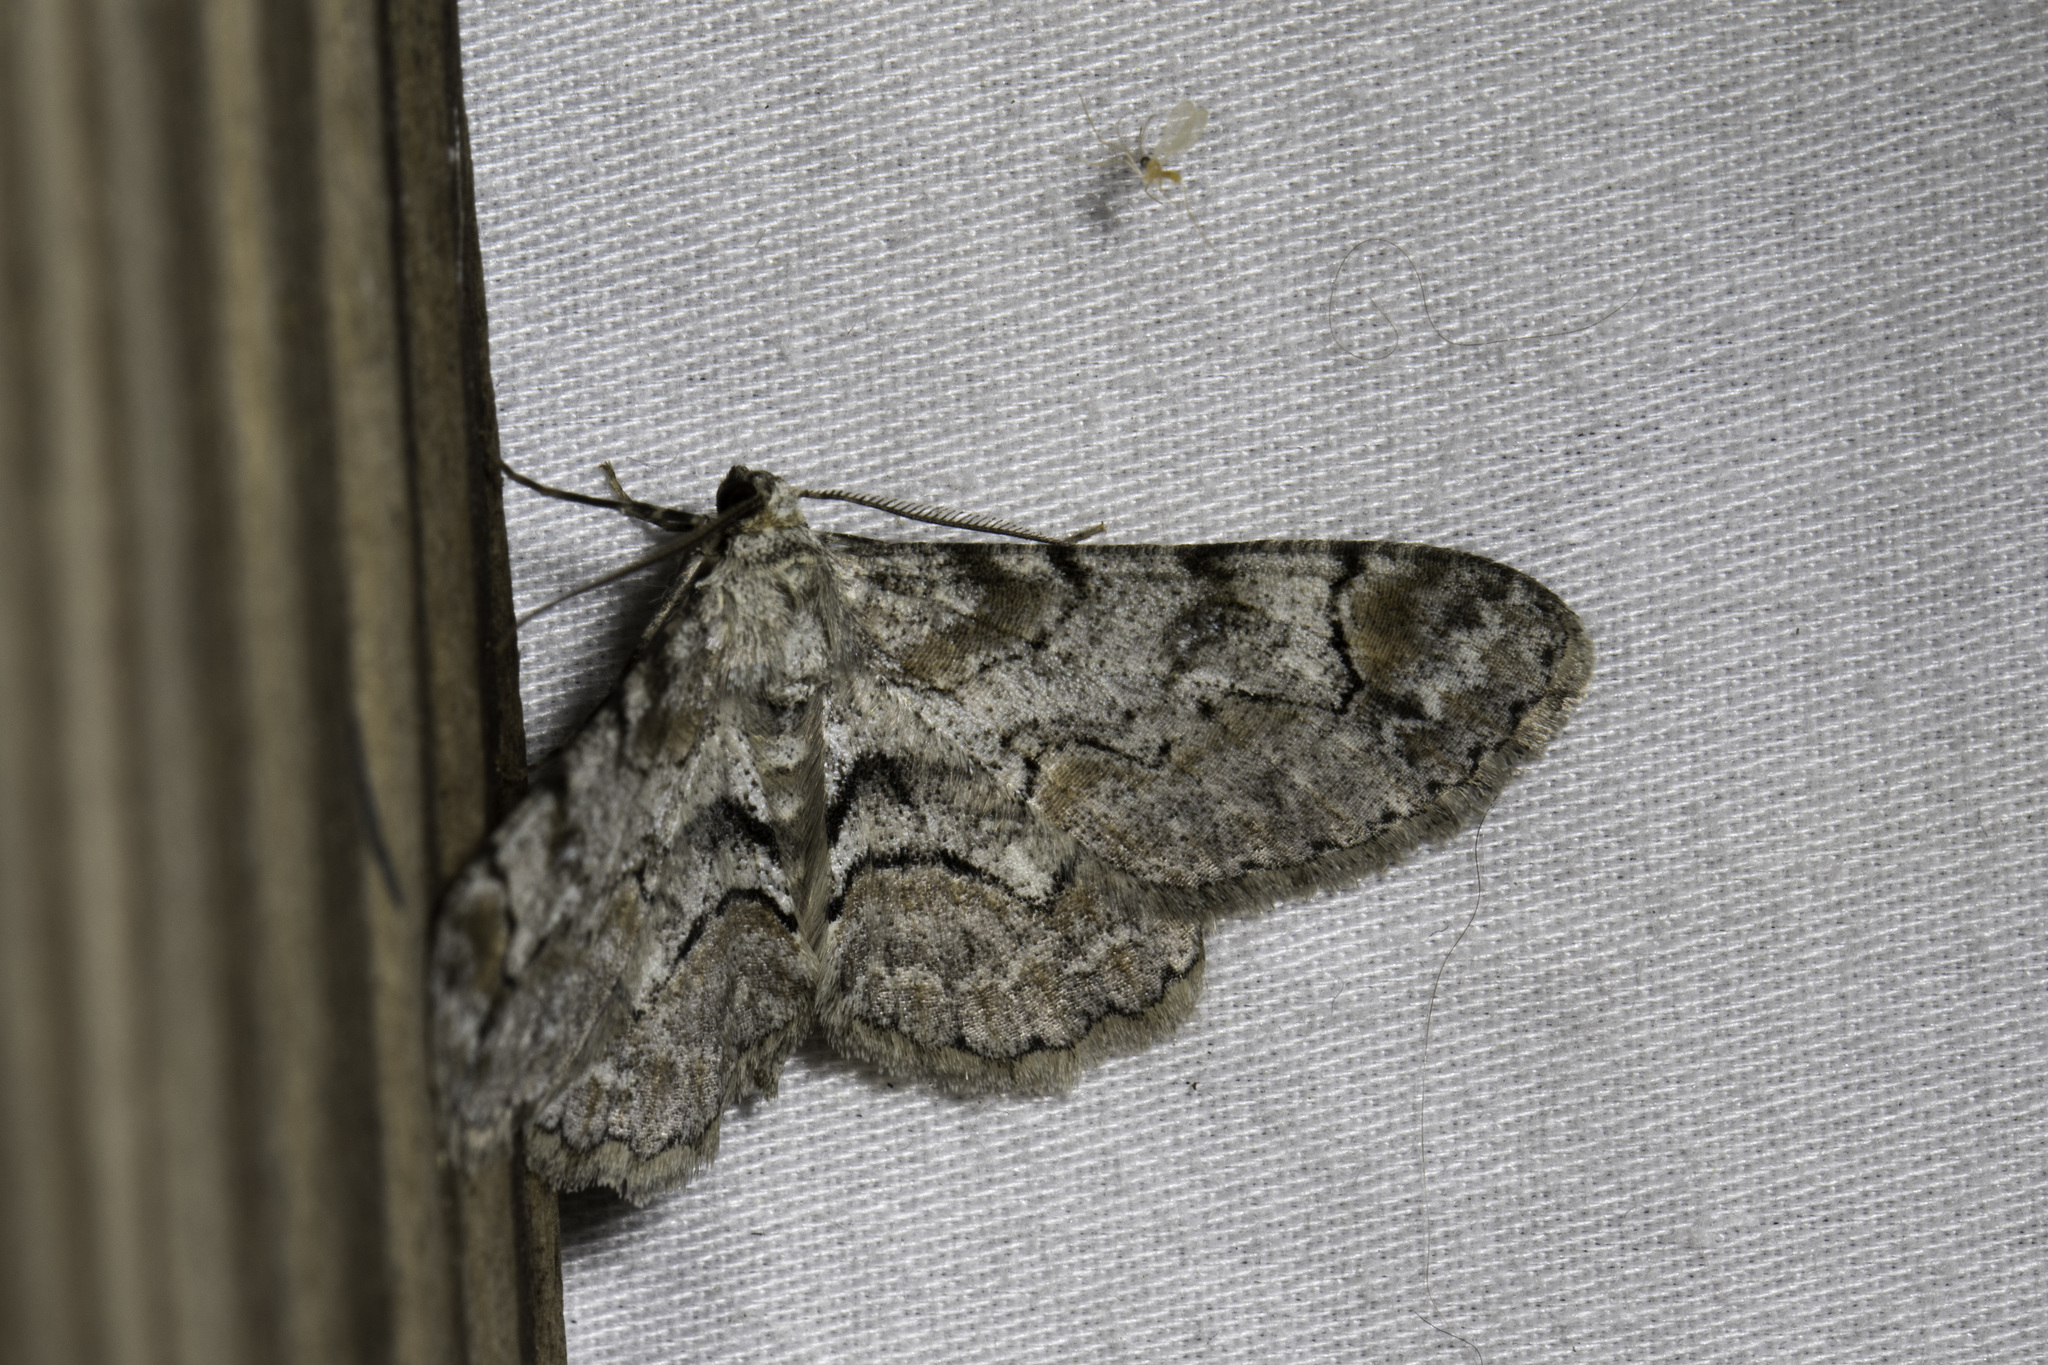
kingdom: Animalia
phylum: Arthropoda
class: Insecta
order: Lepidoptera
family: Geometridae
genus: Iridopsis
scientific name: Iridopsis ephyraria
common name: Pale-winged gray
